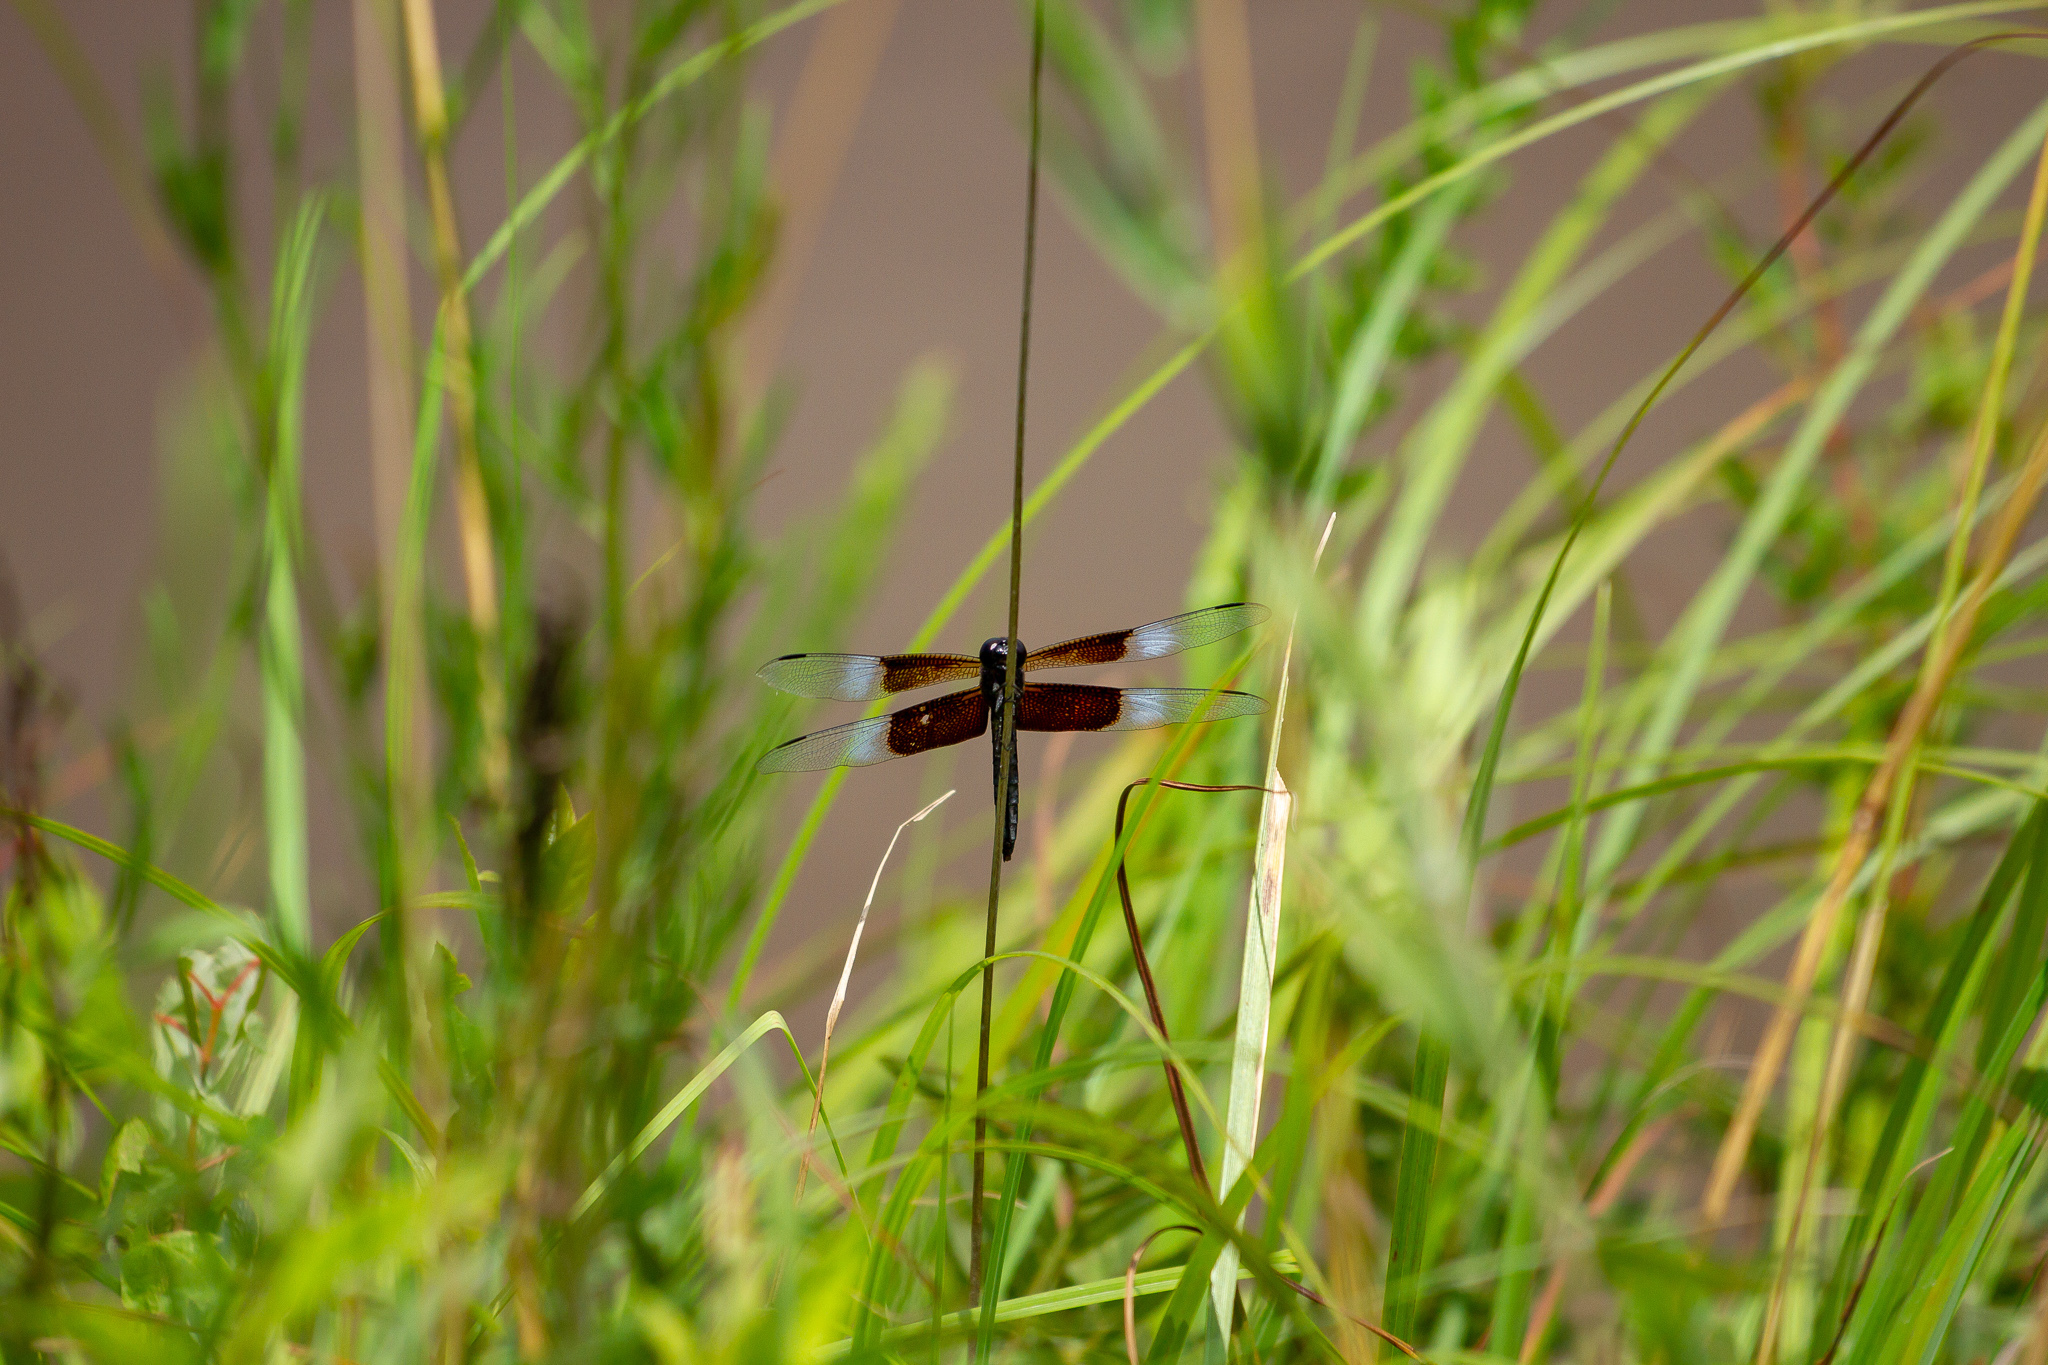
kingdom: Animalia
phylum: Arthropoda
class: Insecta
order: Odonata
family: Libellulidae
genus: Libellula
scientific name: Libellula luctuosa
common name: Widow skimmer
